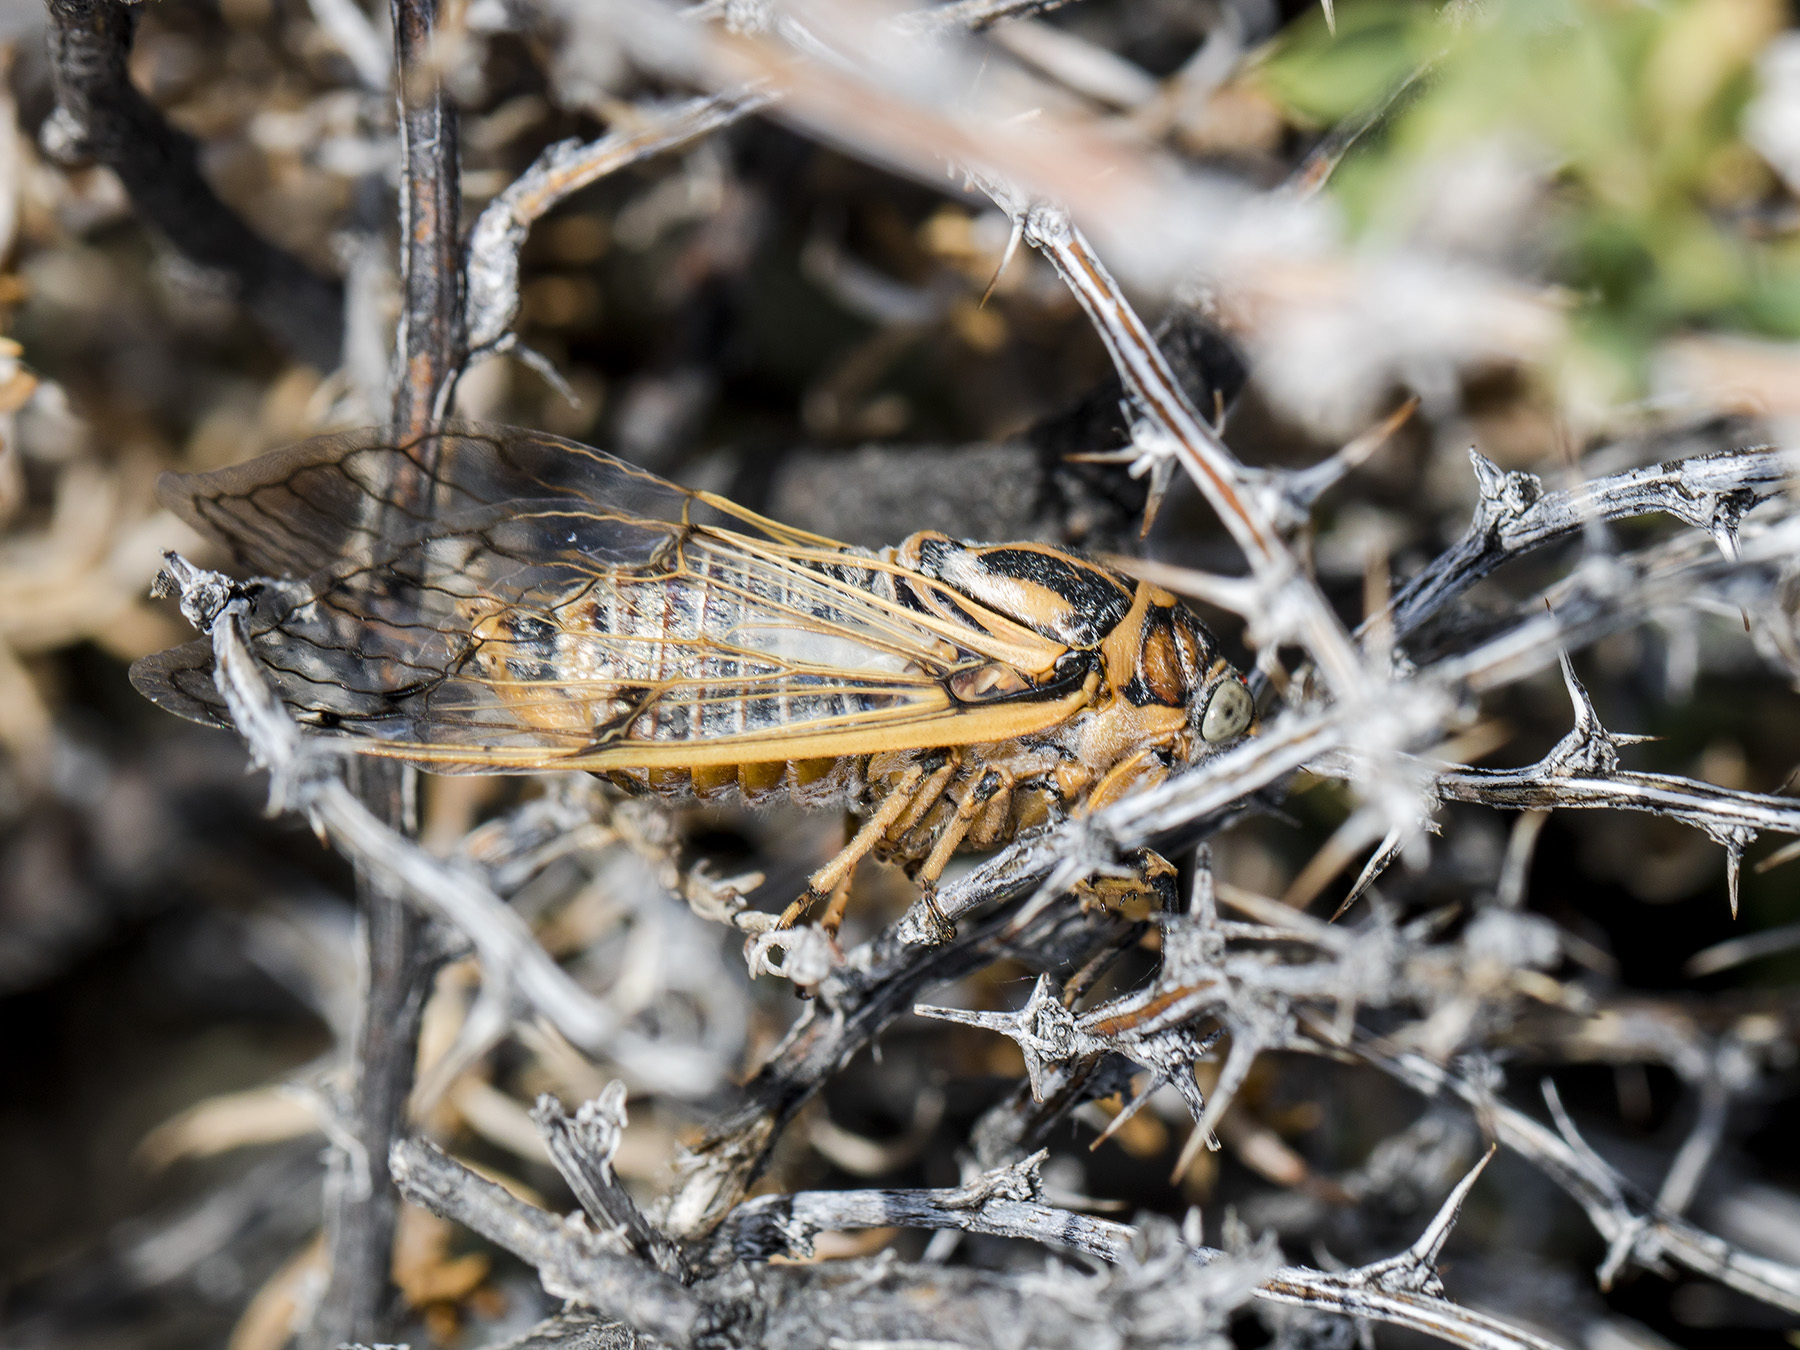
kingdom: Animalia
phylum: Arthropoda
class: Insecta
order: Hemiptera
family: Cicadidae
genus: Psalmocharias
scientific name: Psalmocharias querulus
